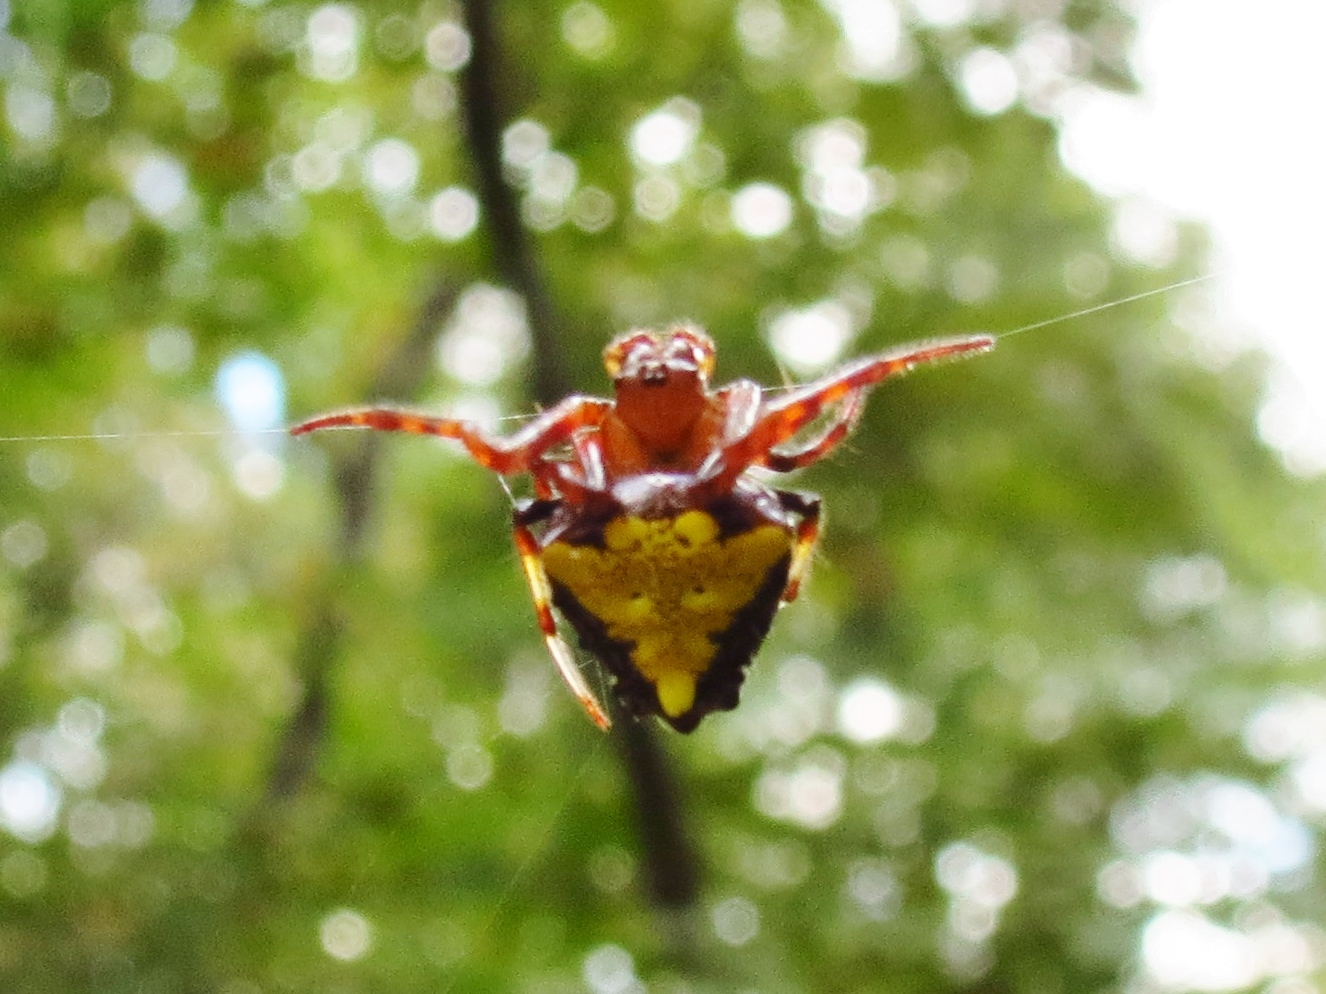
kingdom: Animalia
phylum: Arthropoda
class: Arachnida
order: Araneae
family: Araneidae
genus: Verrucosa
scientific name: Verrucosa arenata
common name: Orb weavers
